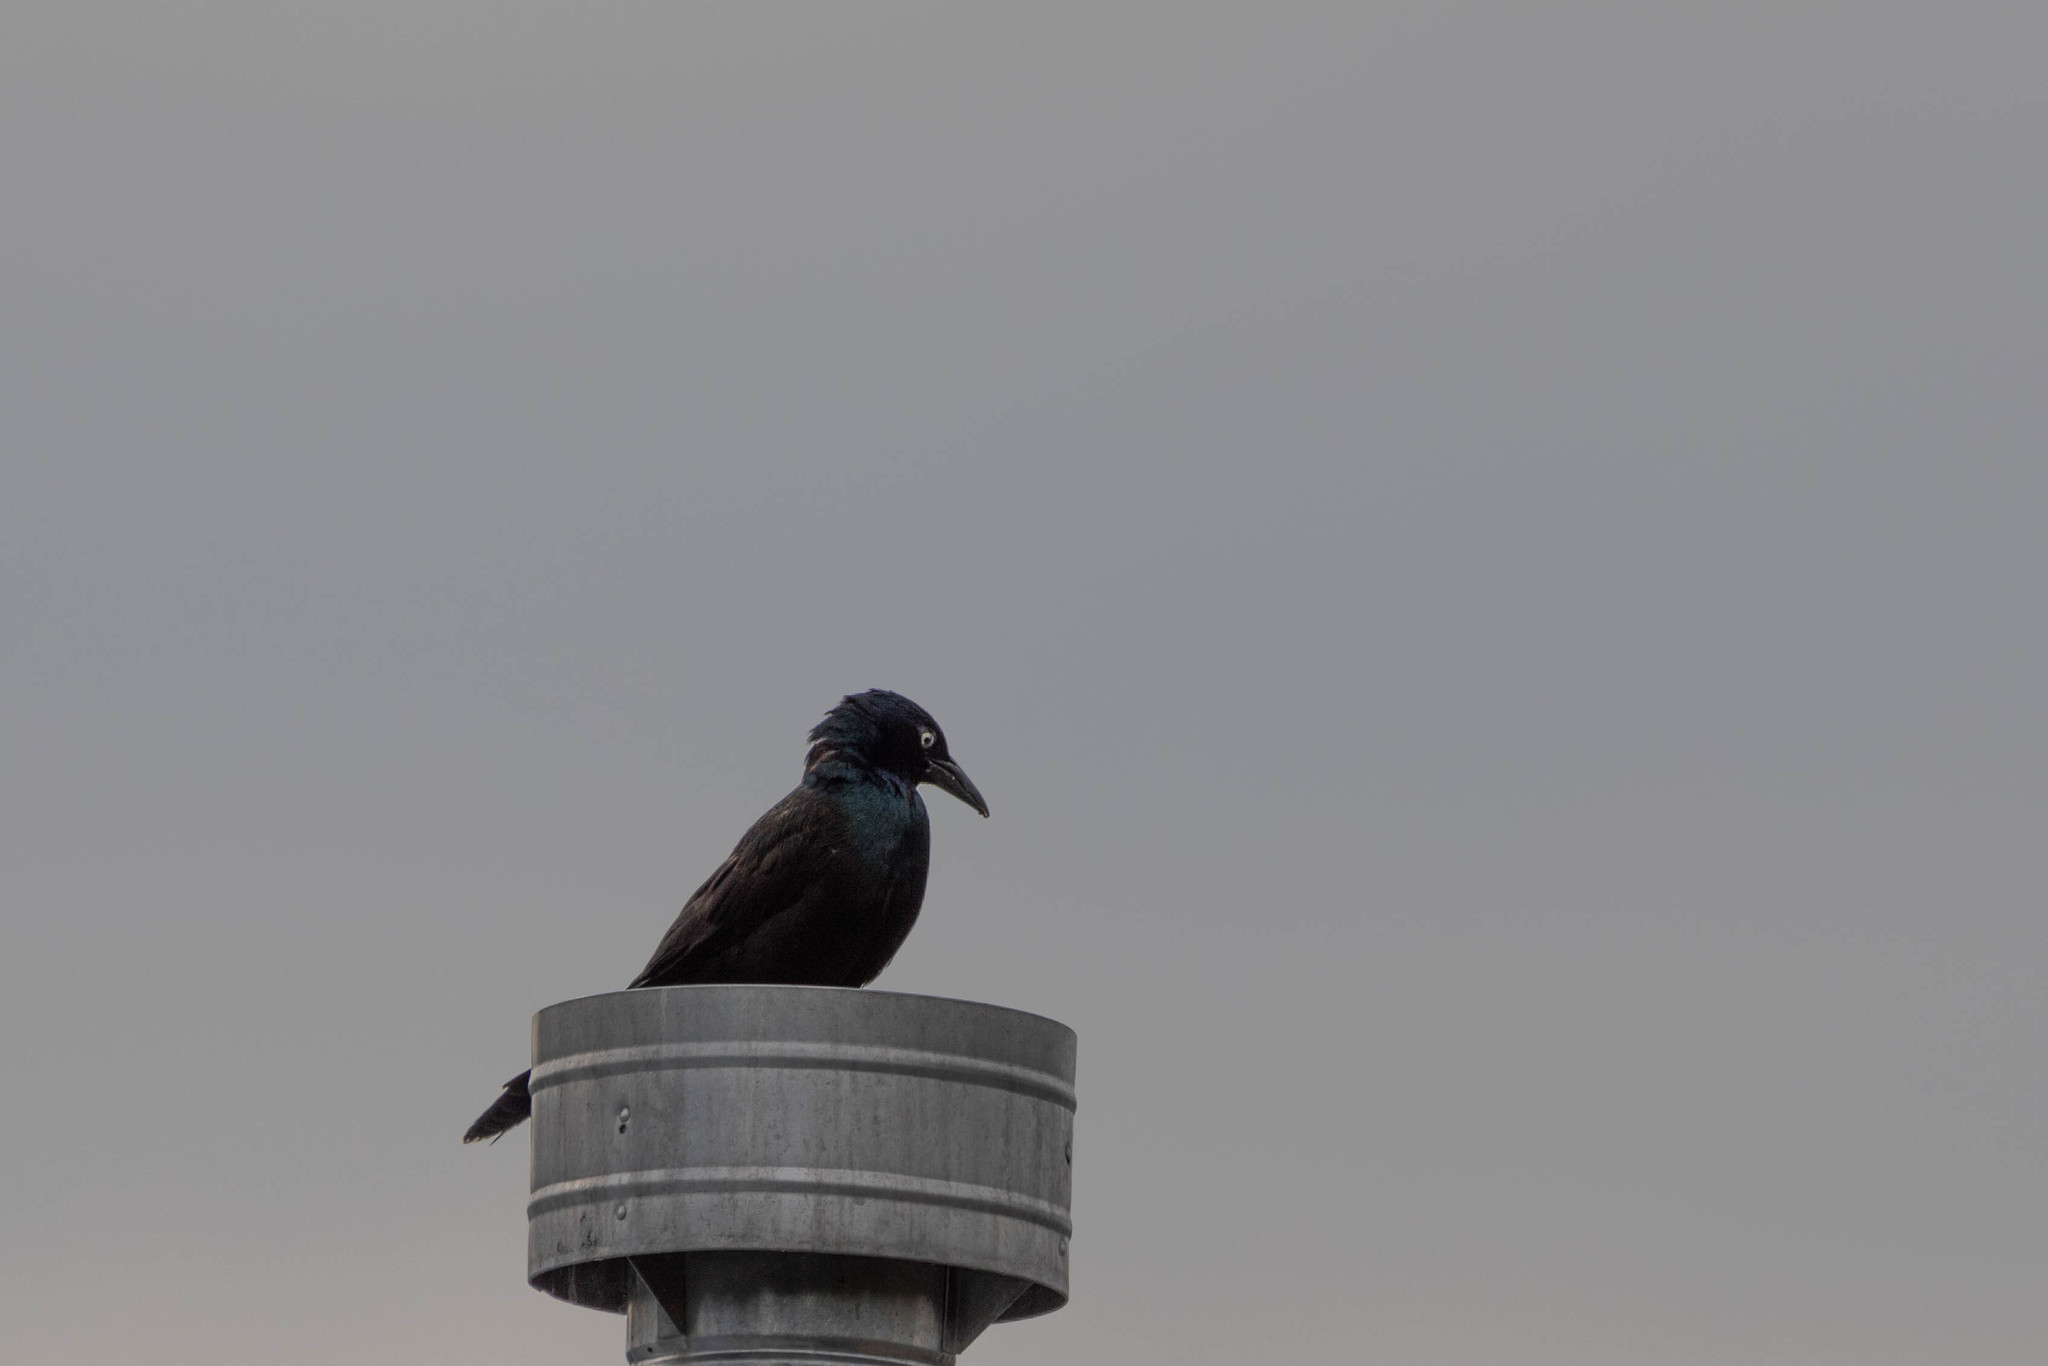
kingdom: Animalia
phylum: Chordata
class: Aves
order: Passeriformes
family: Icteridae
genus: Quiscalus
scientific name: Quiscalus quiscula
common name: Common grackle
